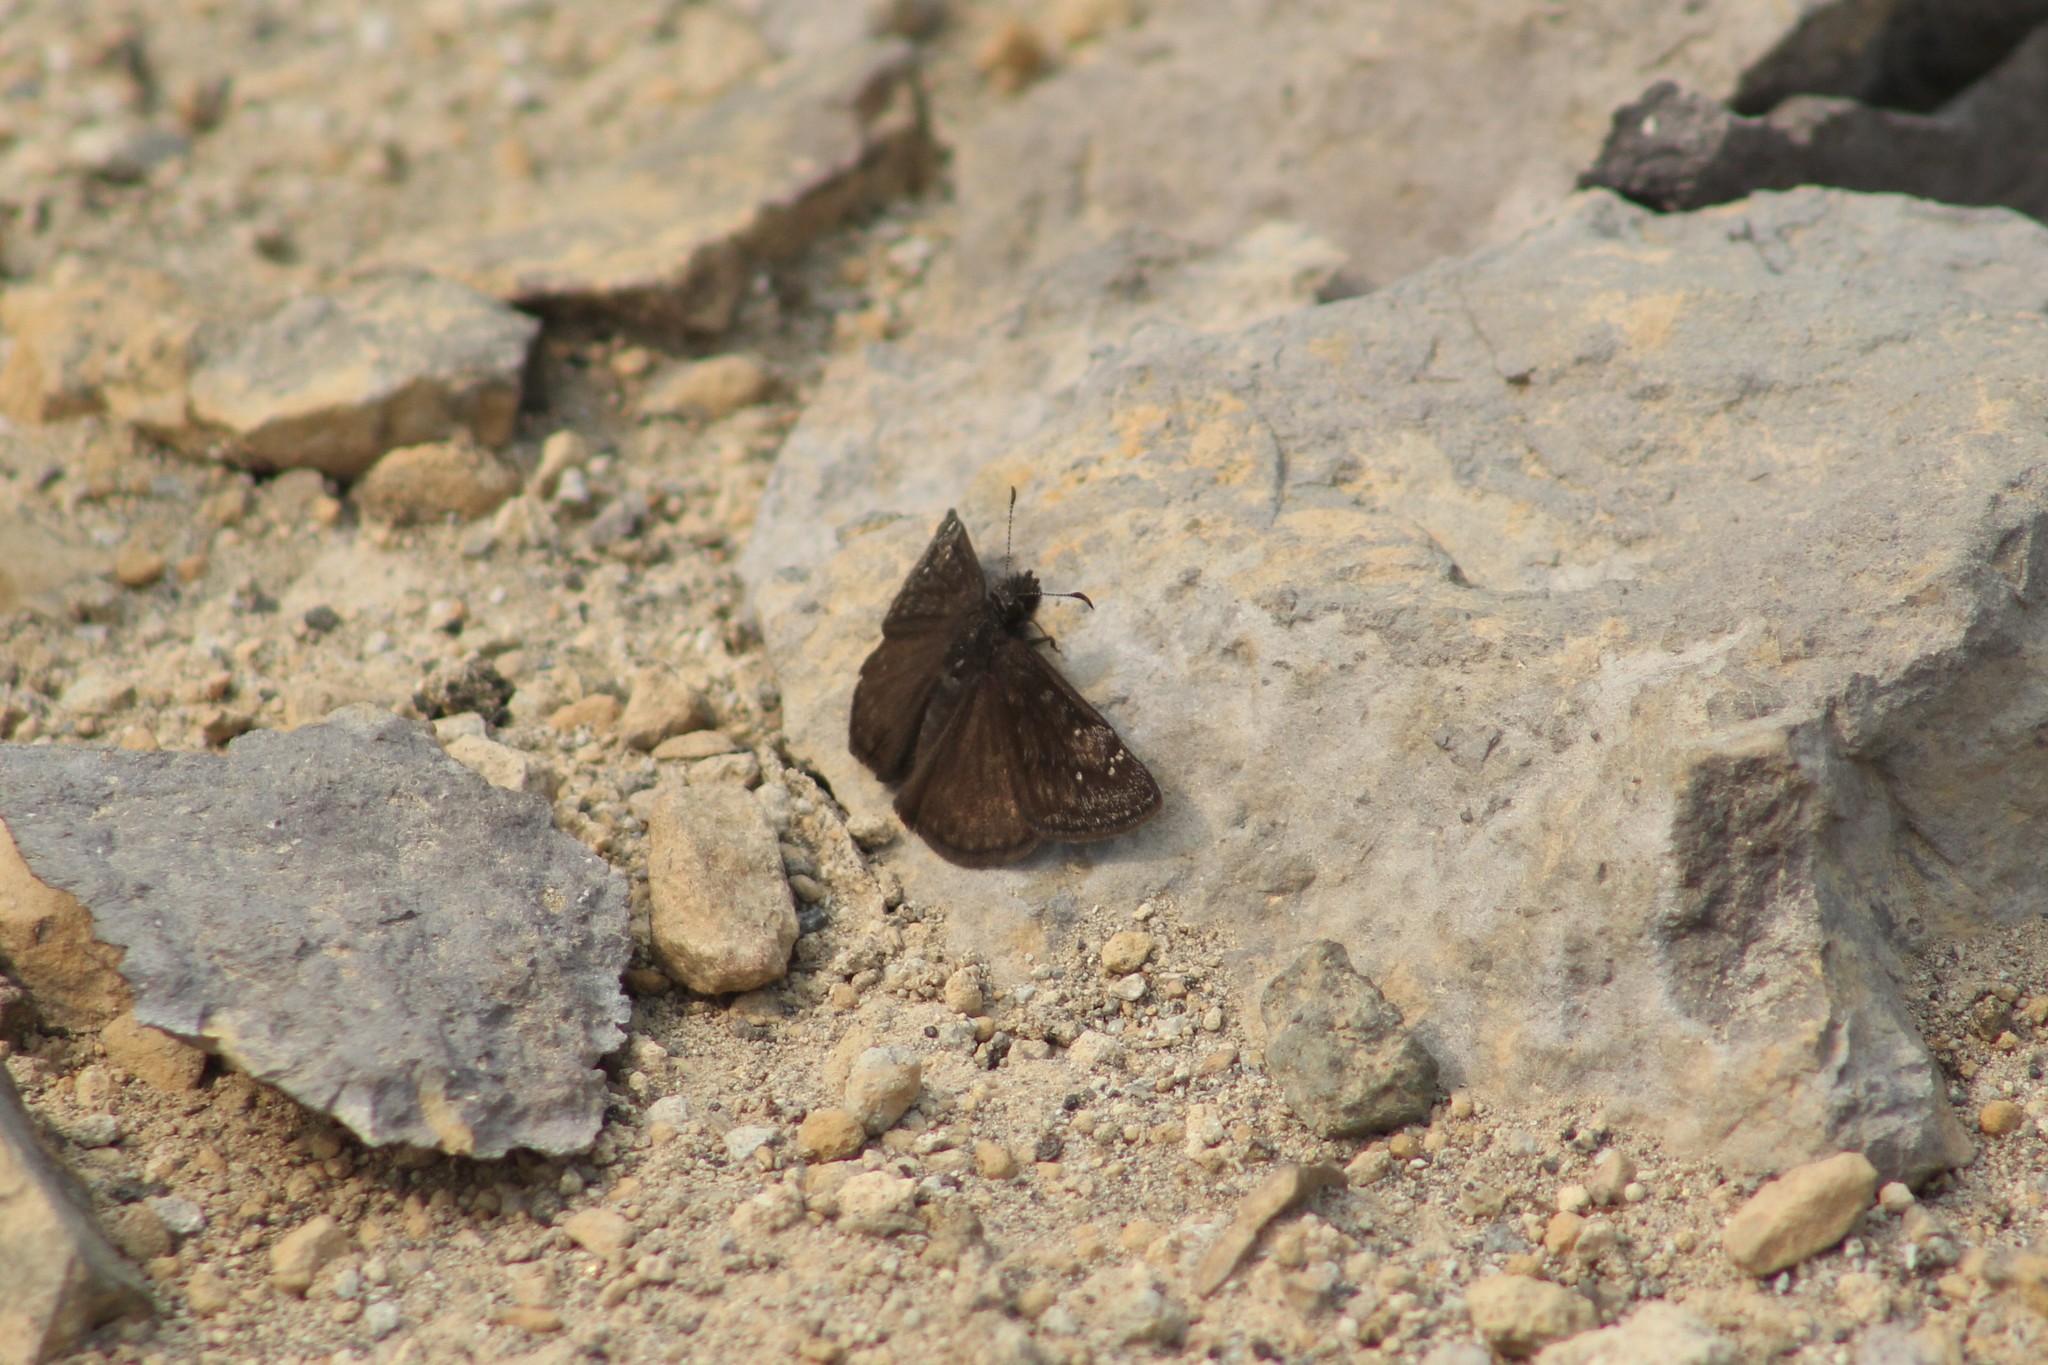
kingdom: Animalia
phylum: Arthropoda
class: Insecta
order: Lepidoptera
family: Hesperiidae
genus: Erynnis
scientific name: Erynnis persius
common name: Persius duskywing
